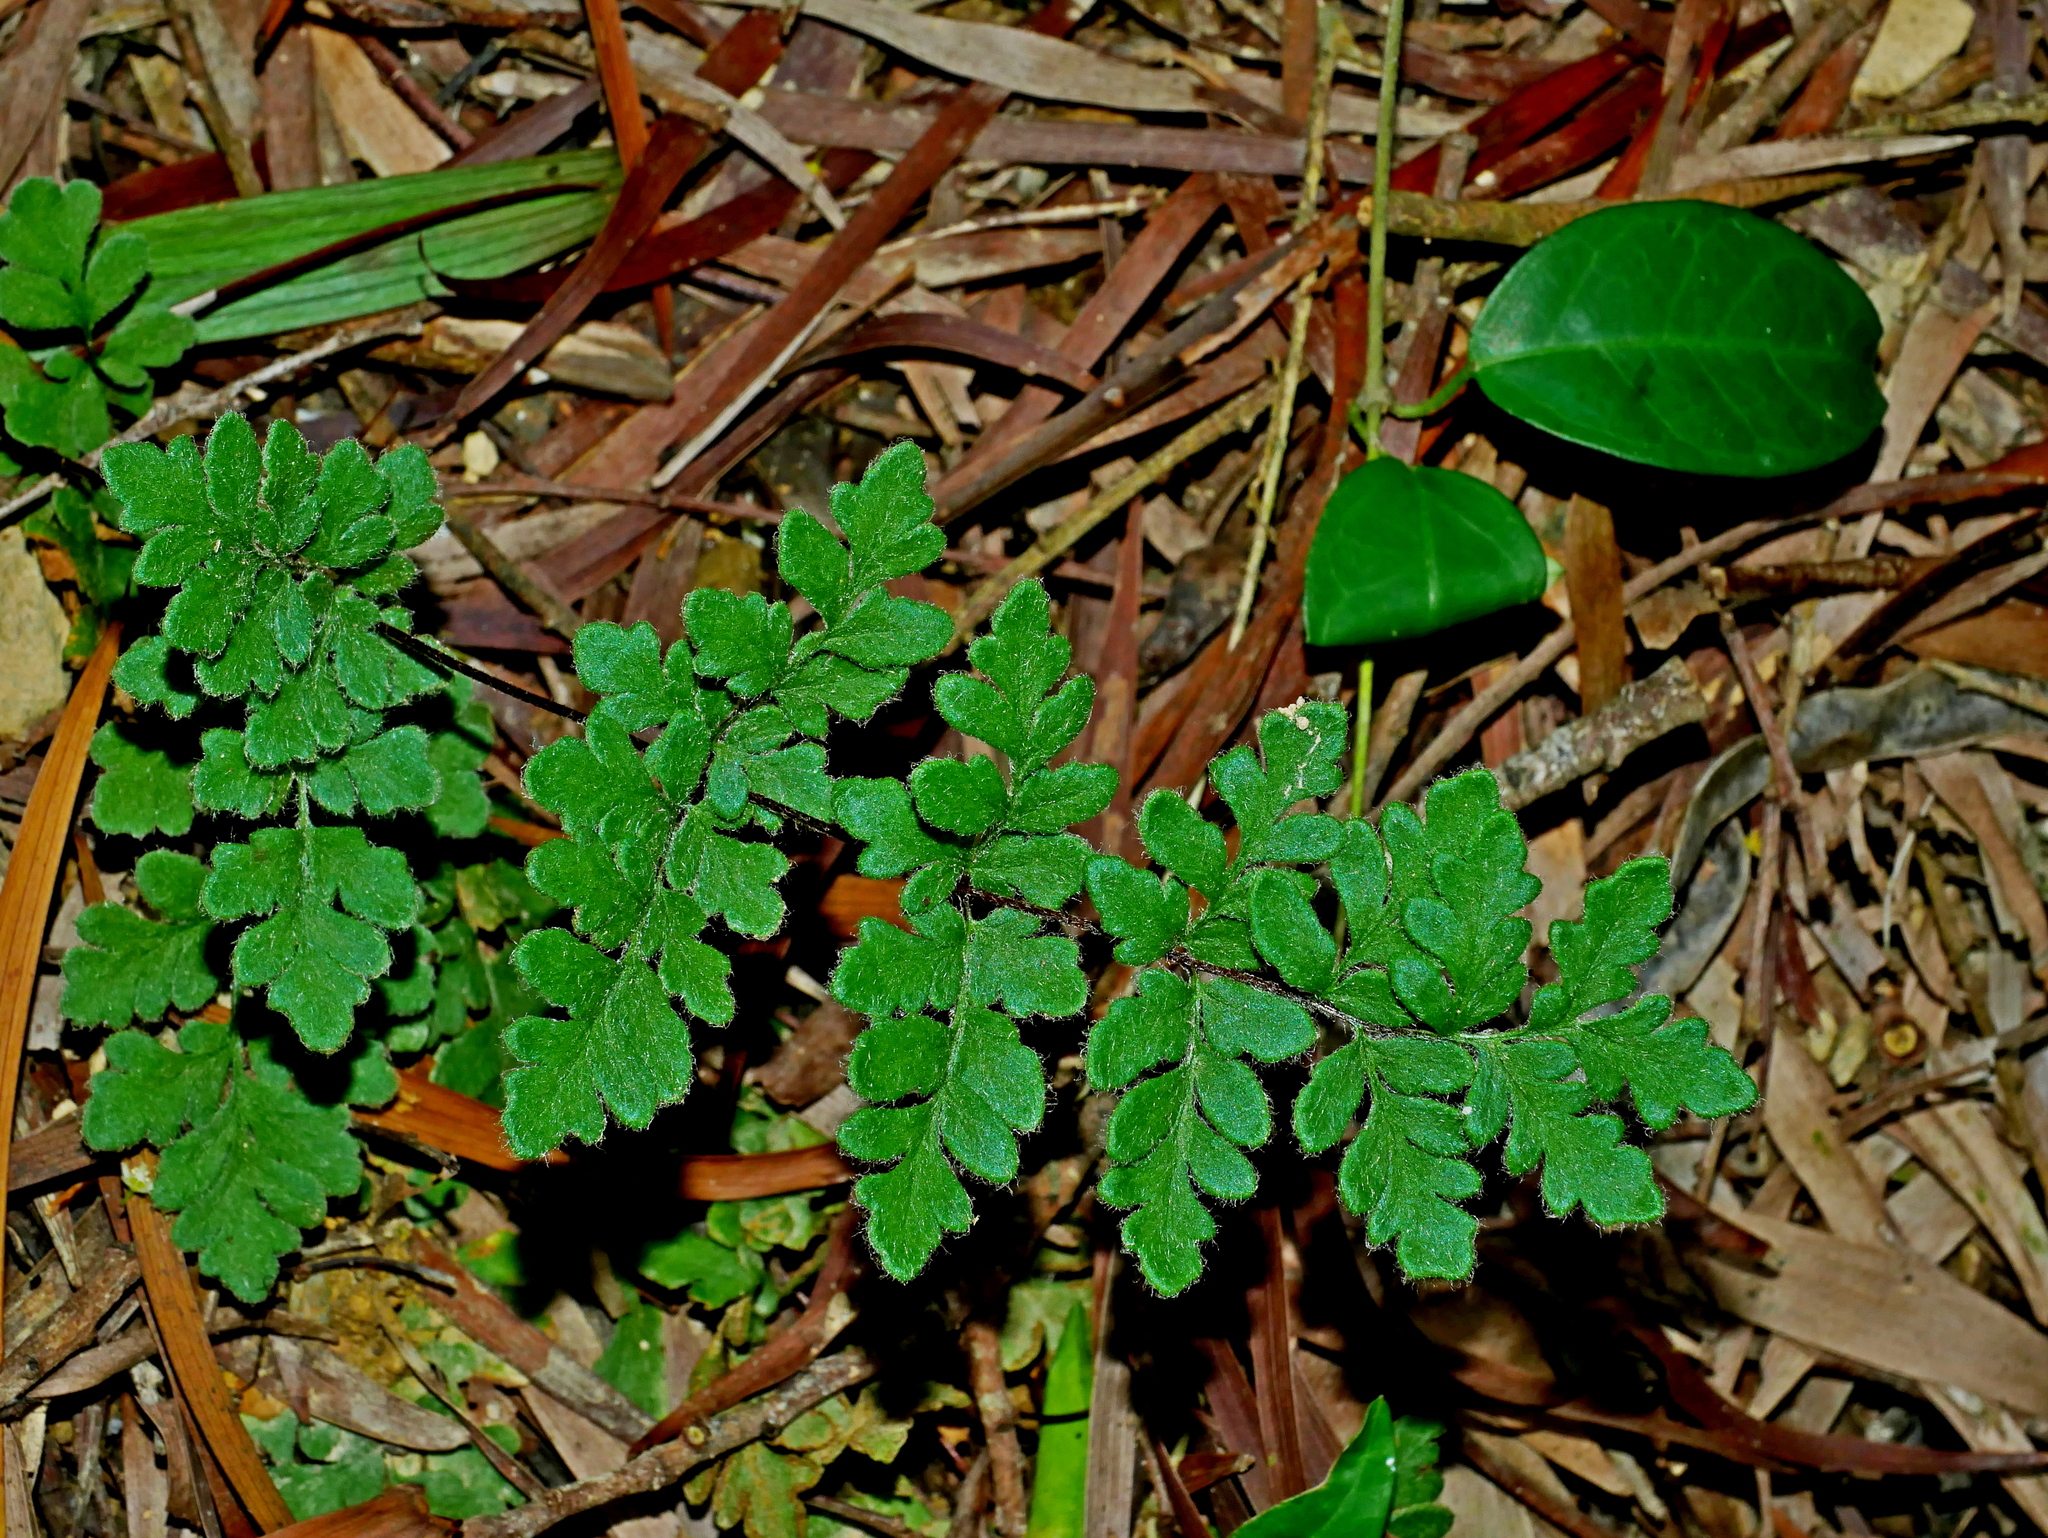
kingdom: Plantae
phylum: Tracheophyta
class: Polypodiopsida
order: Polypodiales
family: Pteridaceae
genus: Cheilanthes
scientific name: Cheilanthes nudiuscula
